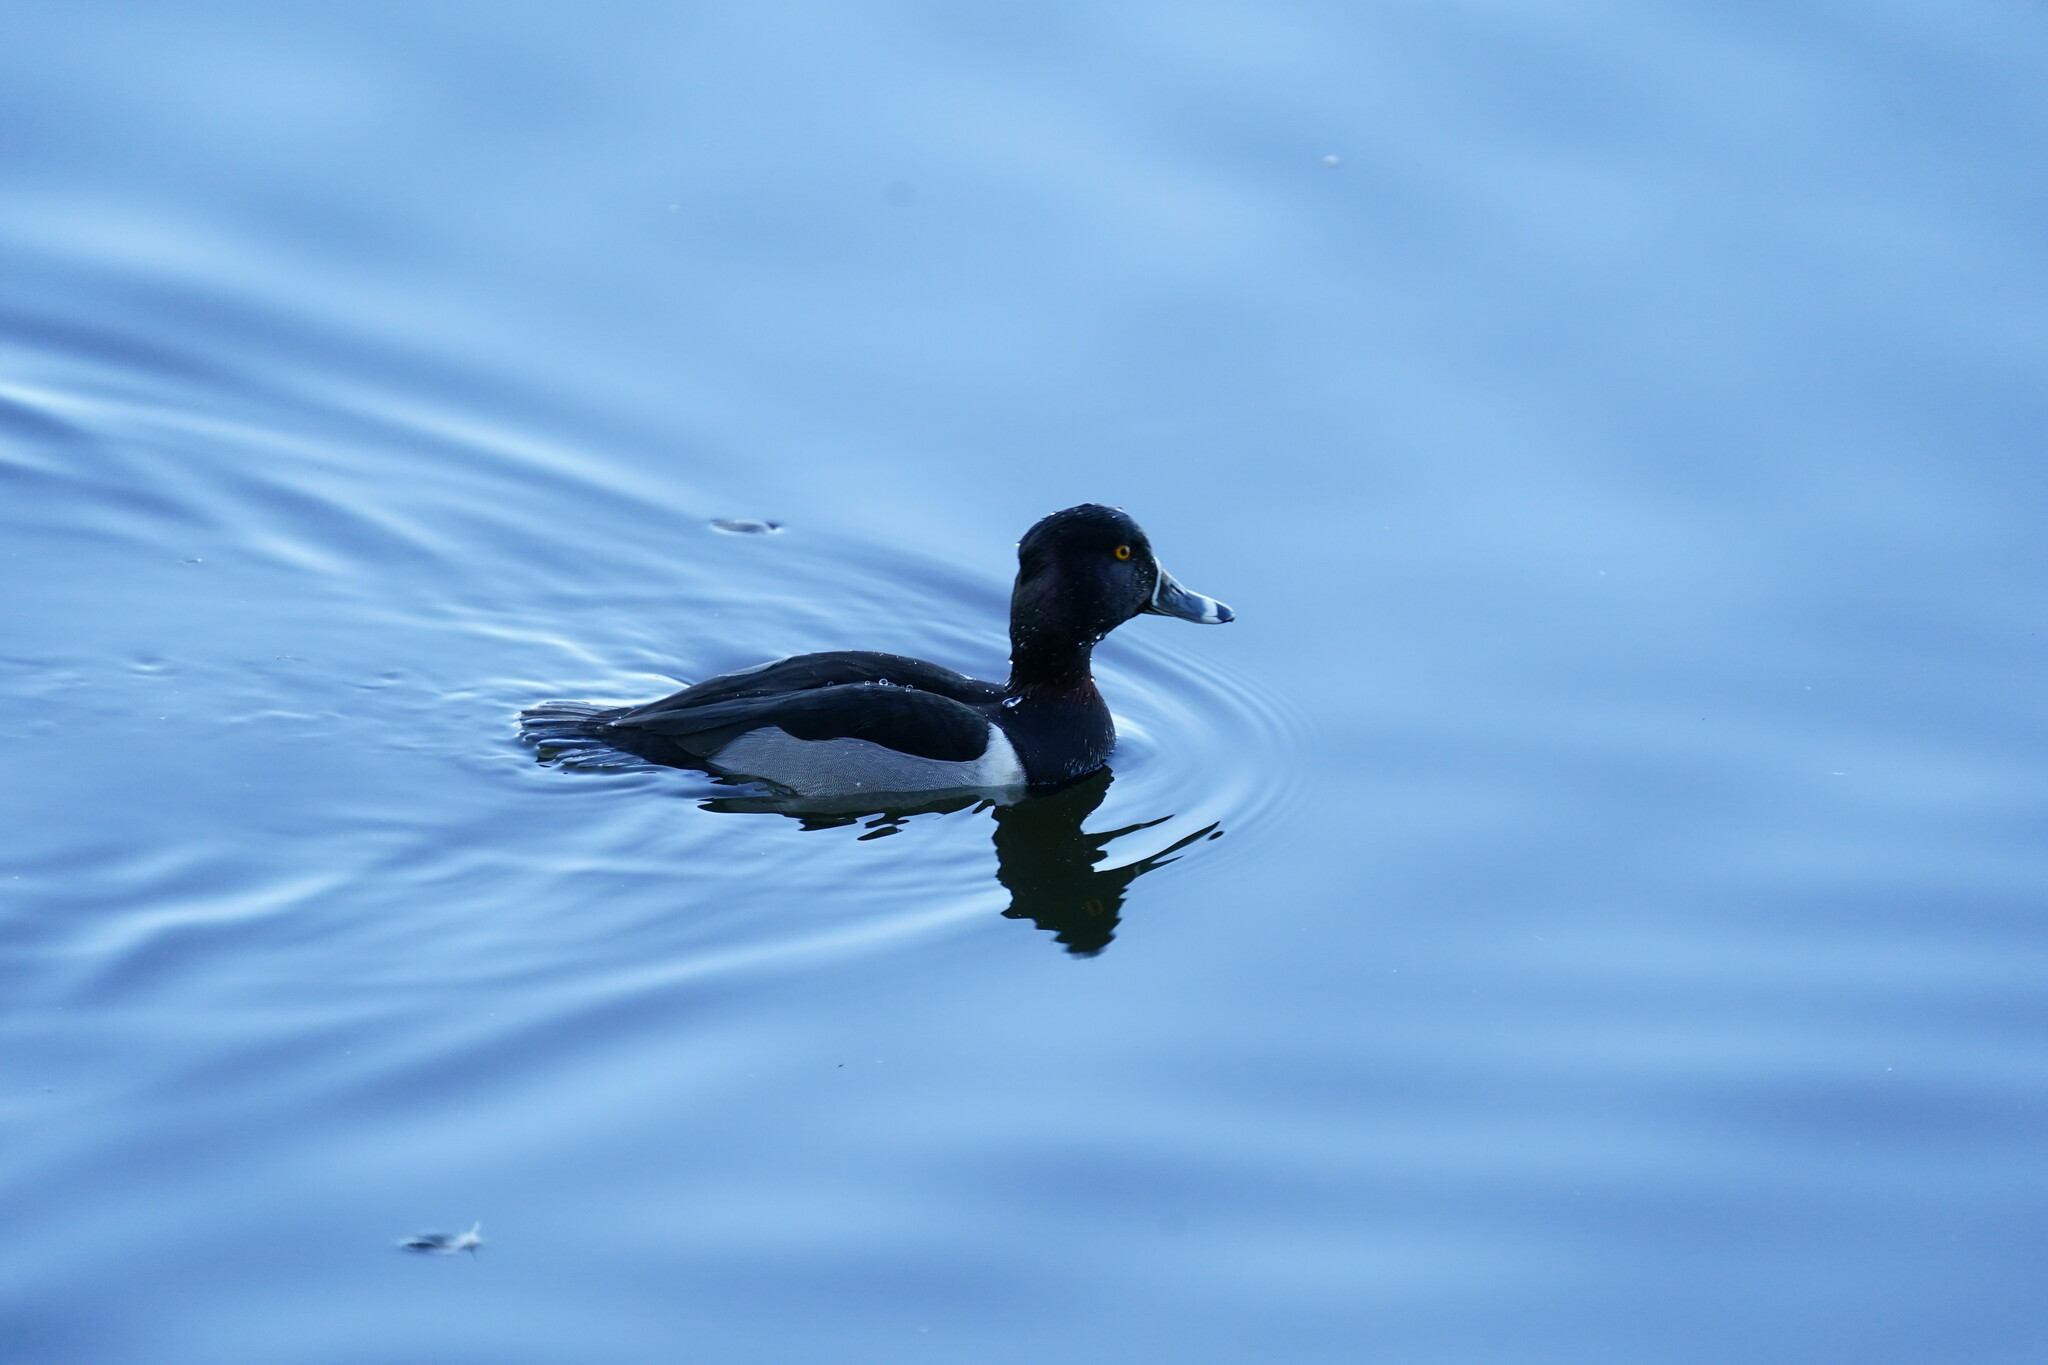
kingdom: Animalia
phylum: Chordata
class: Aves
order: Anseriformes
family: Anatidae
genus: Aythya
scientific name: Aythya collaris
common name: Ring-necked duck
